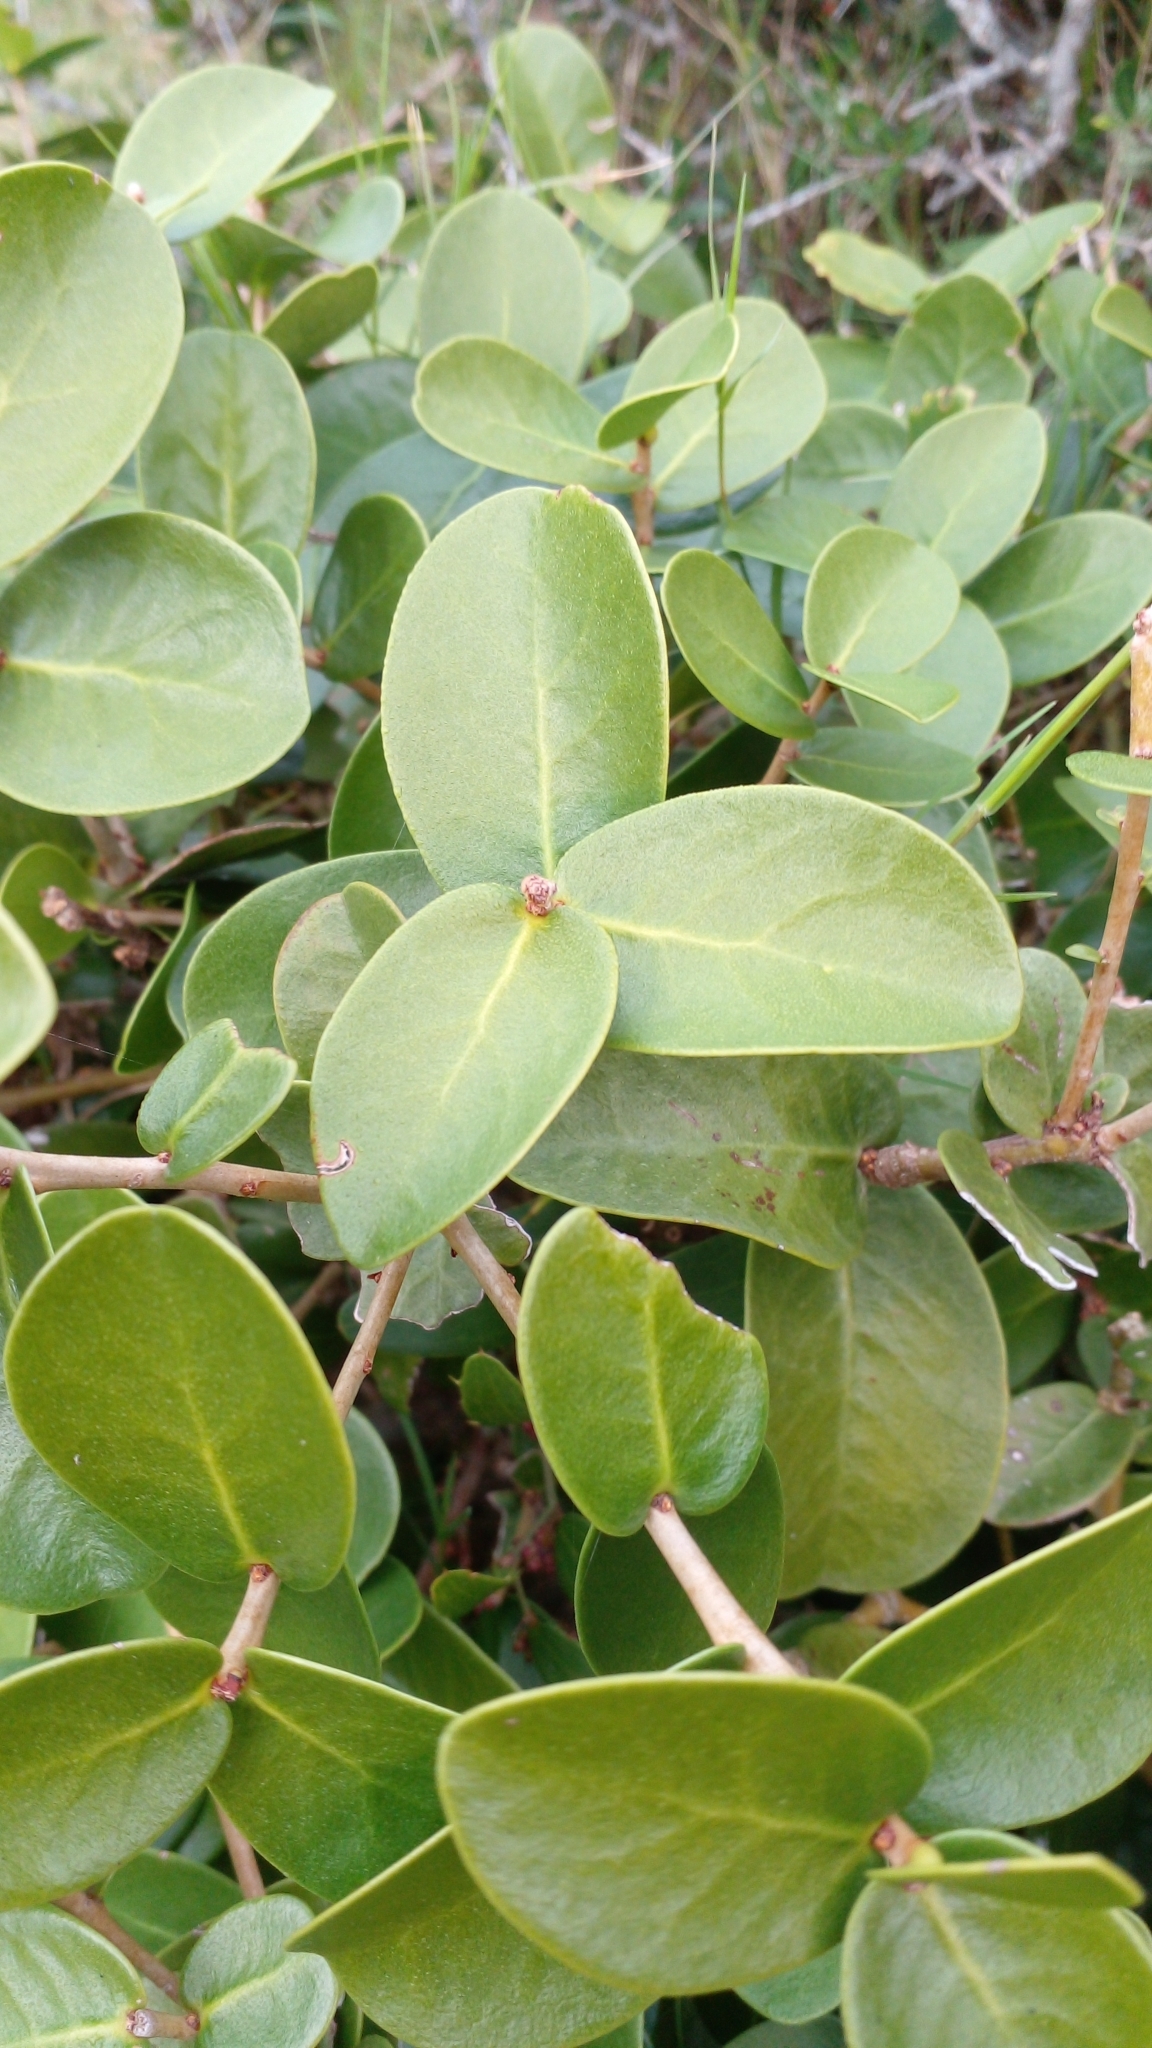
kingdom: Plantae
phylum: Tracheophyta
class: Magnoliopsida
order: Malvales
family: Thymelaeaceae
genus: Daphnopsis
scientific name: Daphnopsis racemosa
